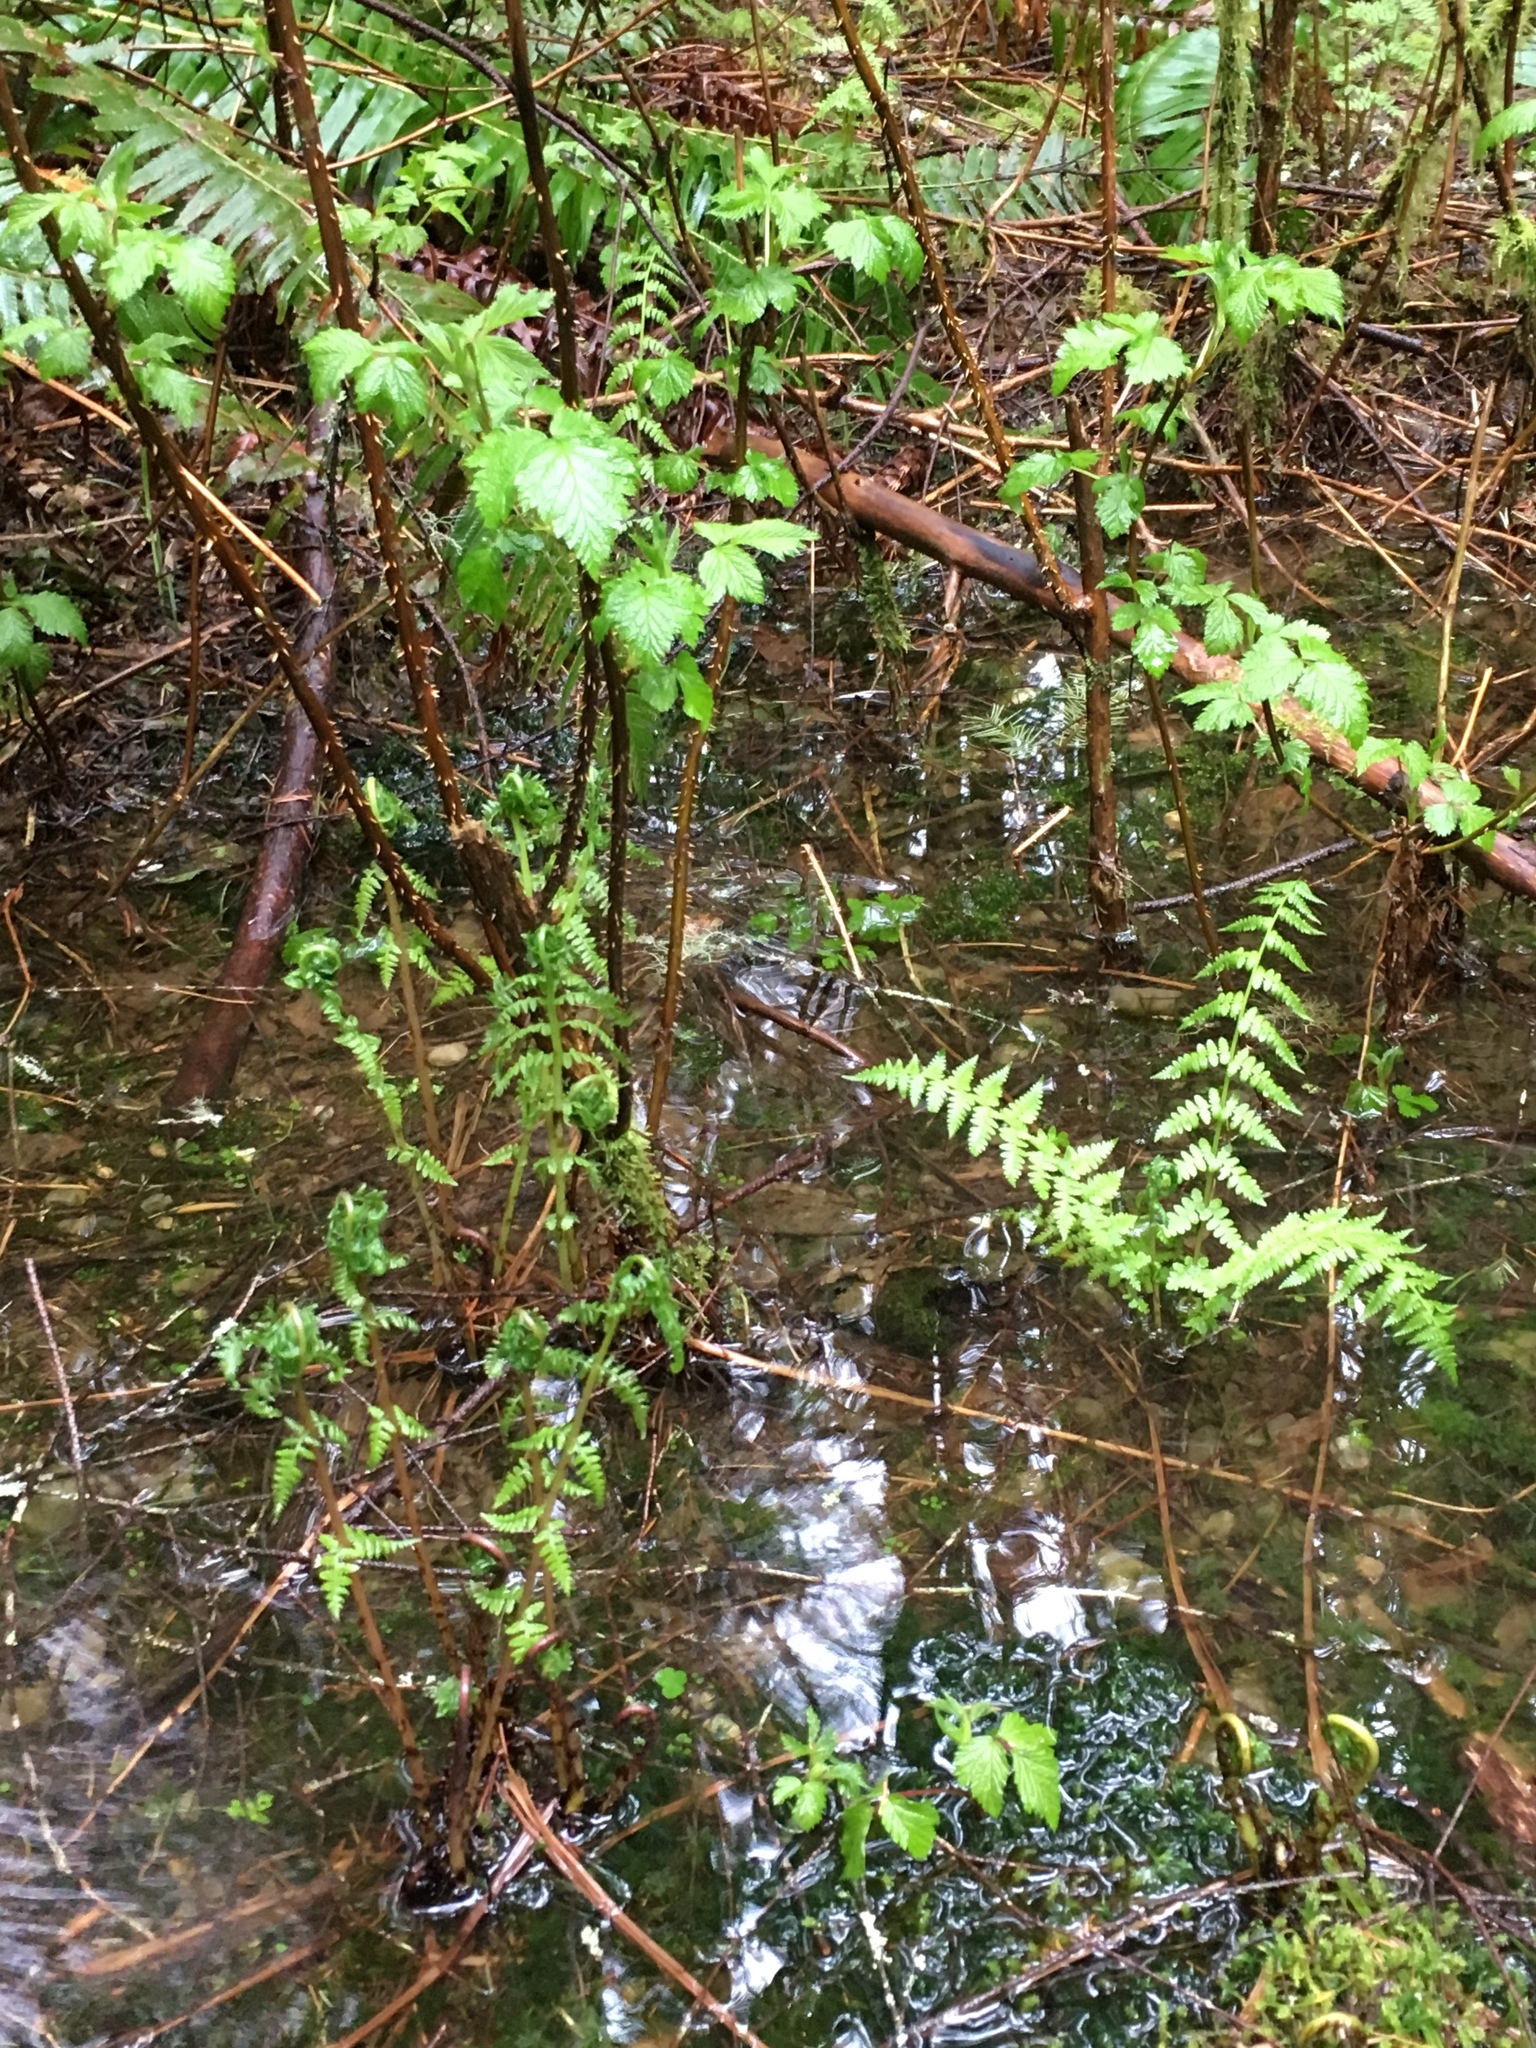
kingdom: Plantae
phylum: Tracheophyta
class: Polypodiopsida
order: Polypodiales
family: Athyriaceae
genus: Athyrium
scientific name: Athyrium cyclosorum
